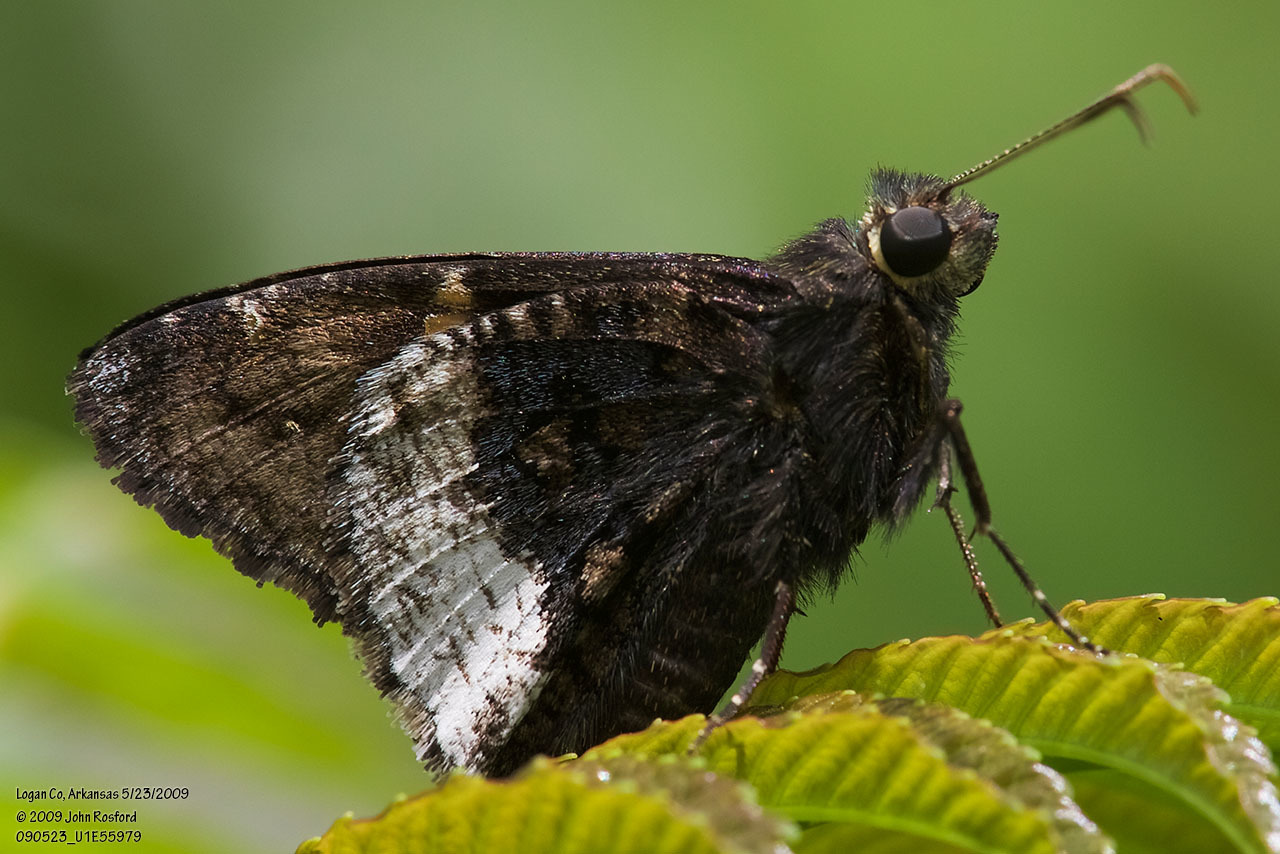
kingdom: Animalia
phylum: Arthropoda
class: Insecta
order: Lepidoptera
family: Hesperiidae
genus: Thorybes
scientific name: Thorybes lyciades
